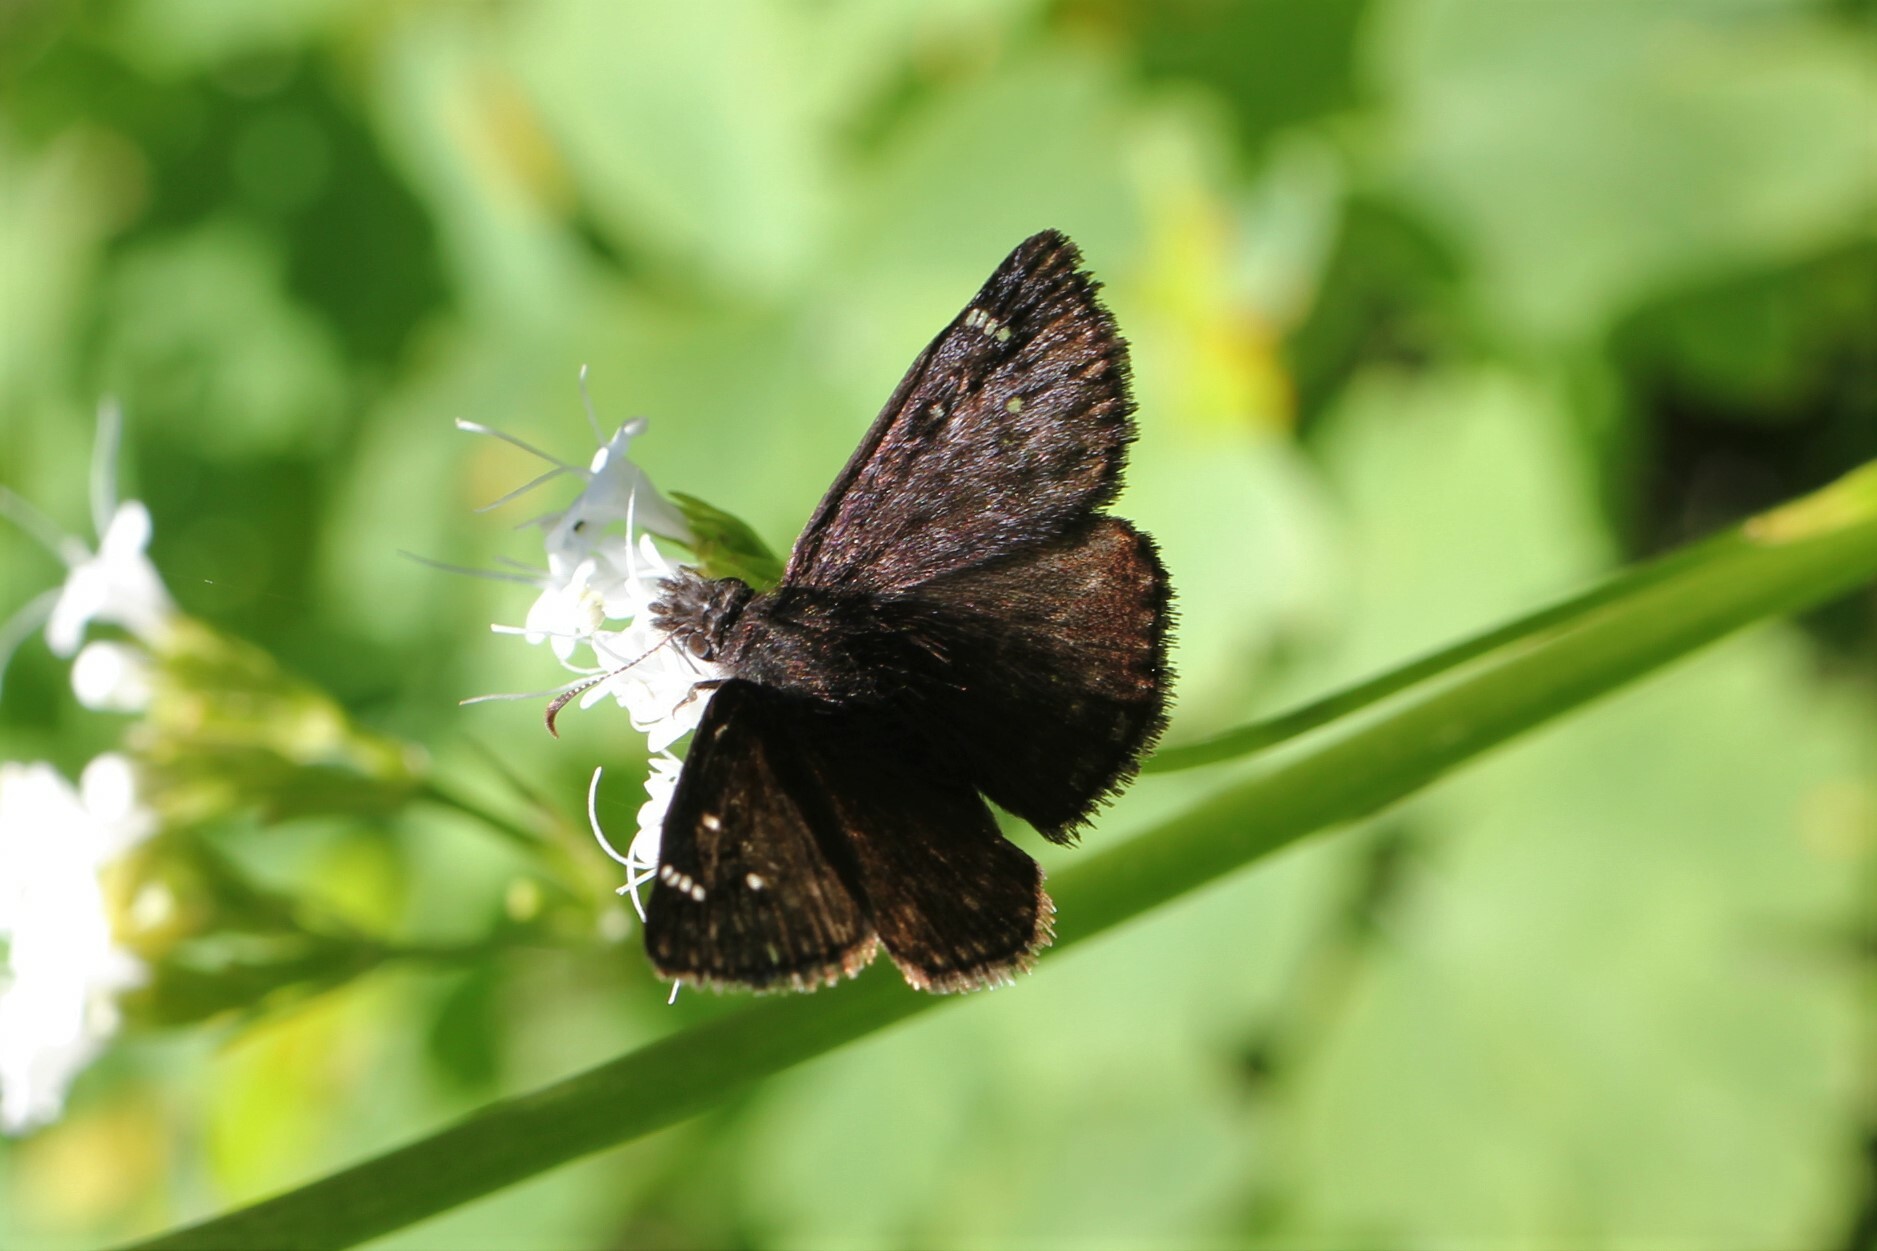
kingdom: Animalia
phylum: Arthropoda
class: Insecta
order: Lepidoptera
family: Hesperiidae
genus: Erynnis
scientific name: Erynnis persius
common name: Persius duskywing
